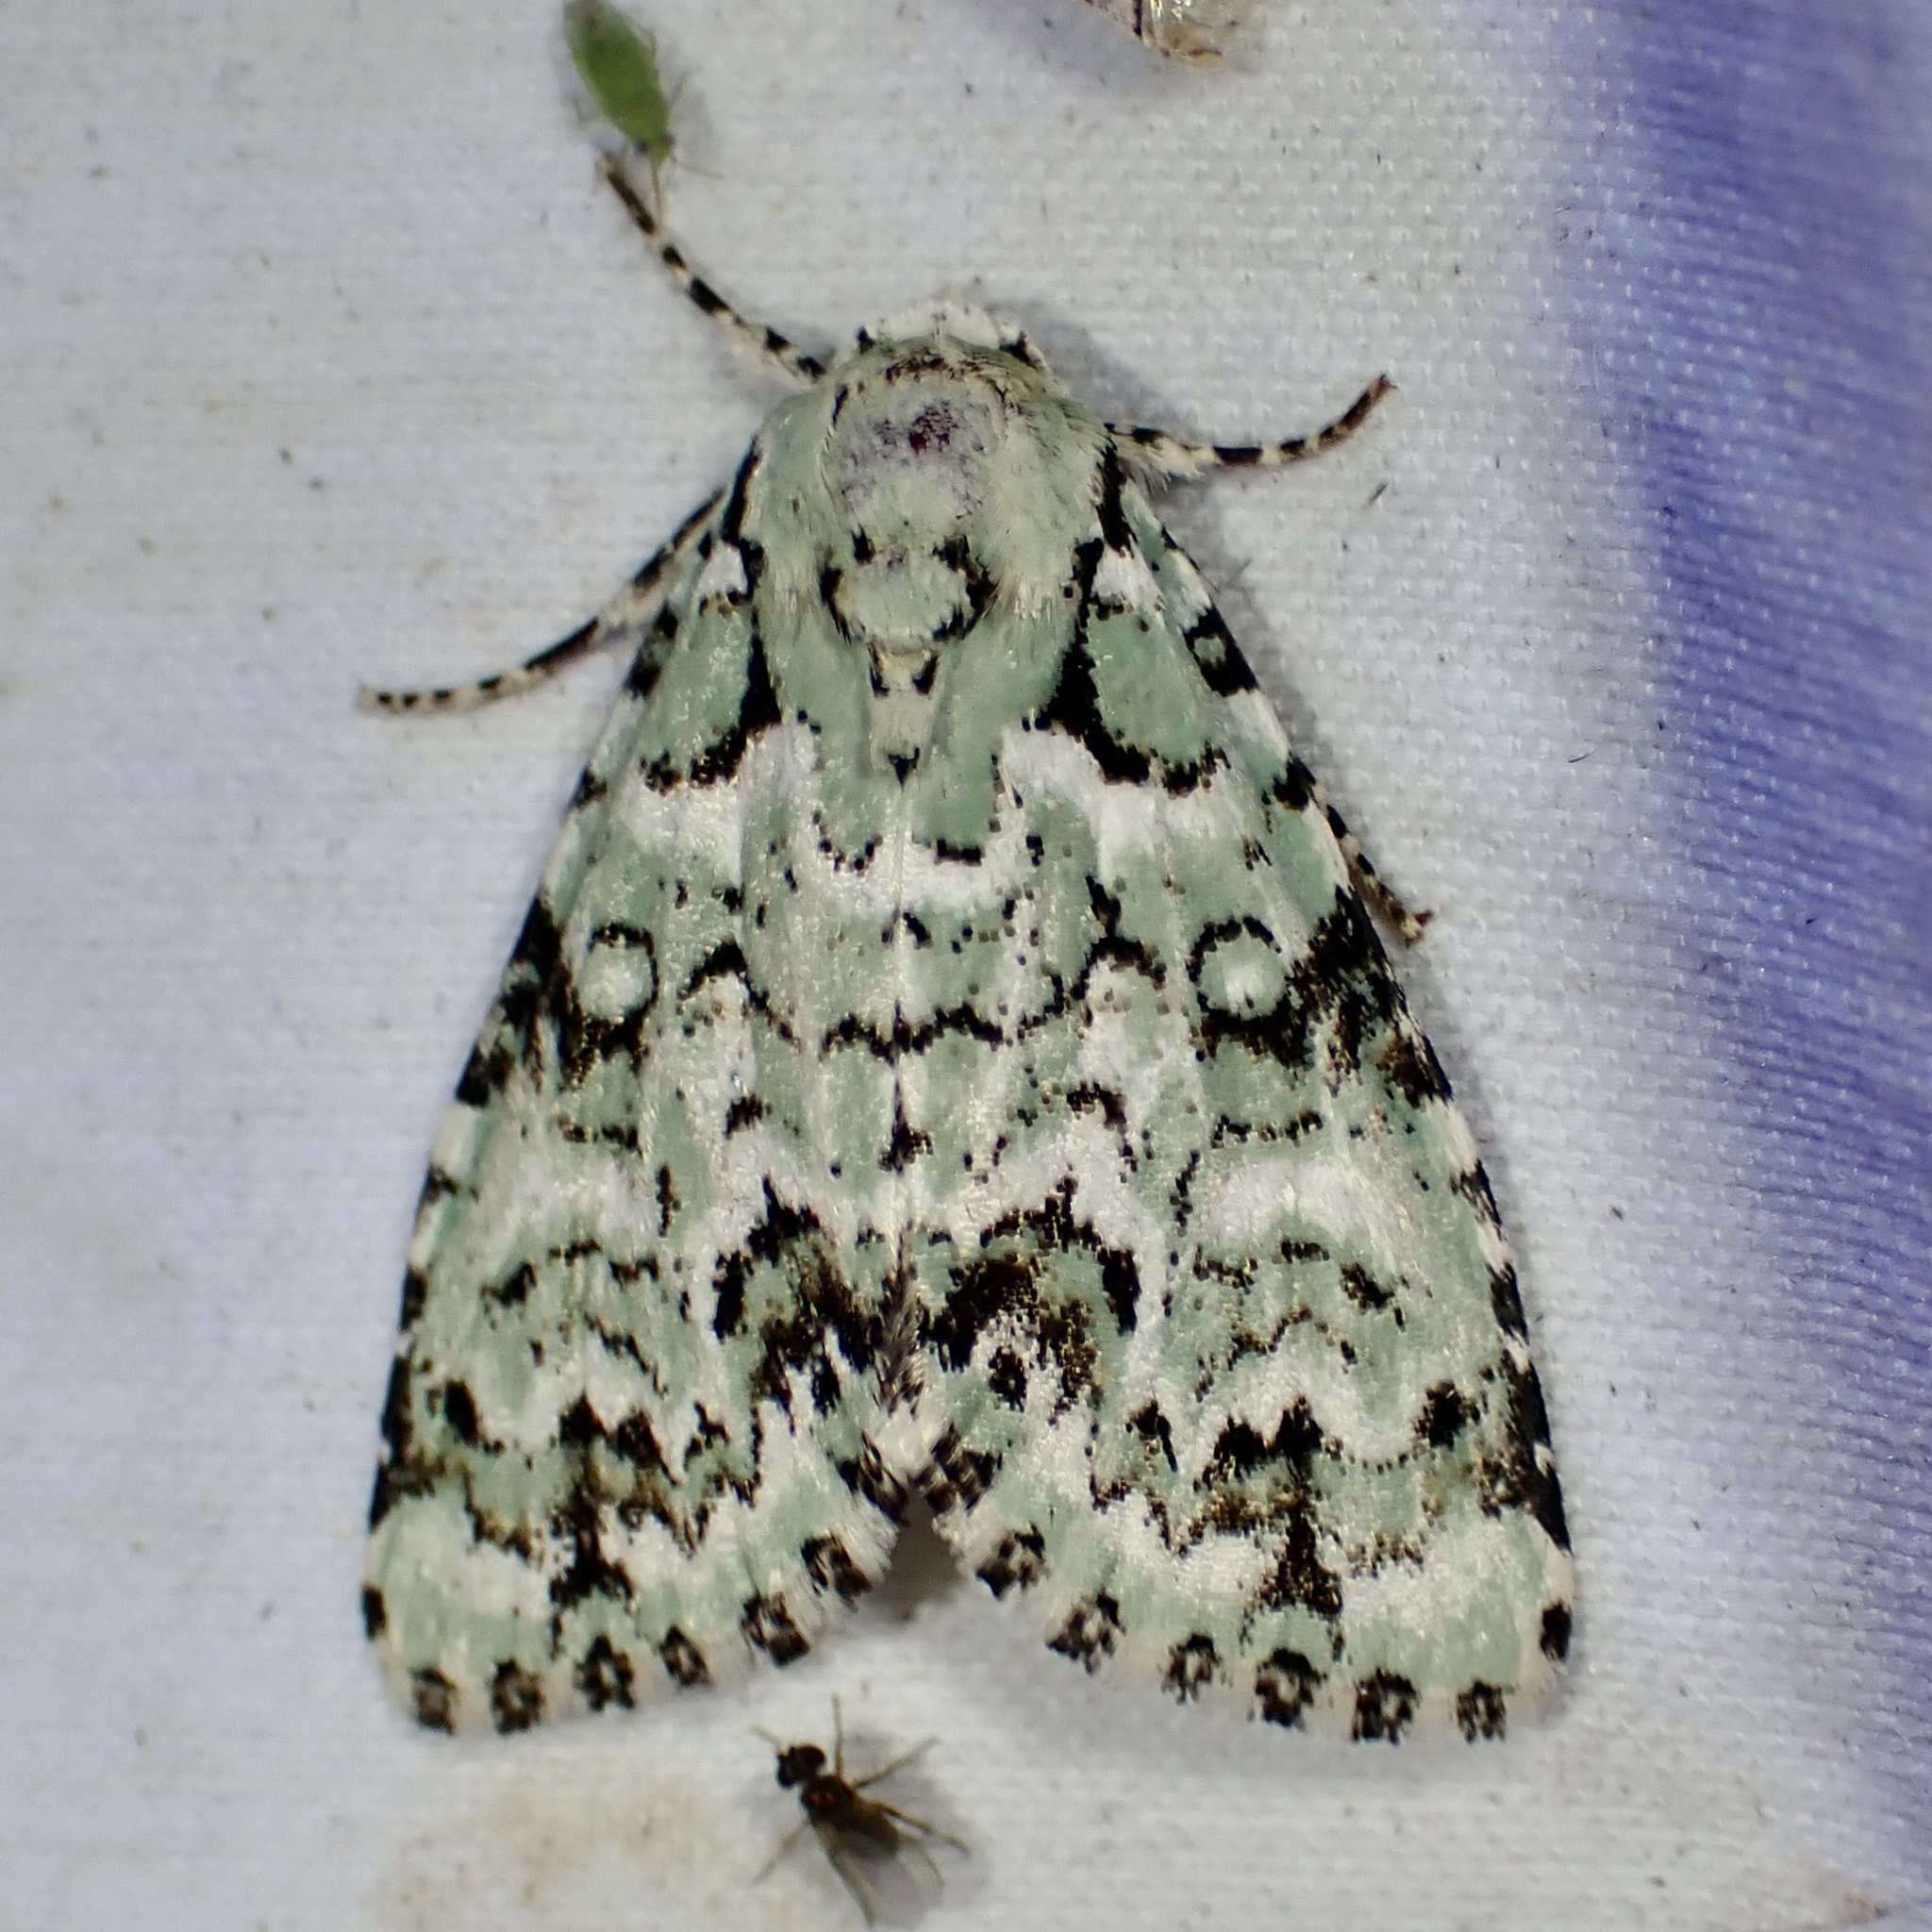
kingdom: Animalia
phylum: Arthropoda
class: Insecta
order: Lepidoptera
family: Noctuidae
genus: Chloronycta
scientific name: Chloronycta tybo
